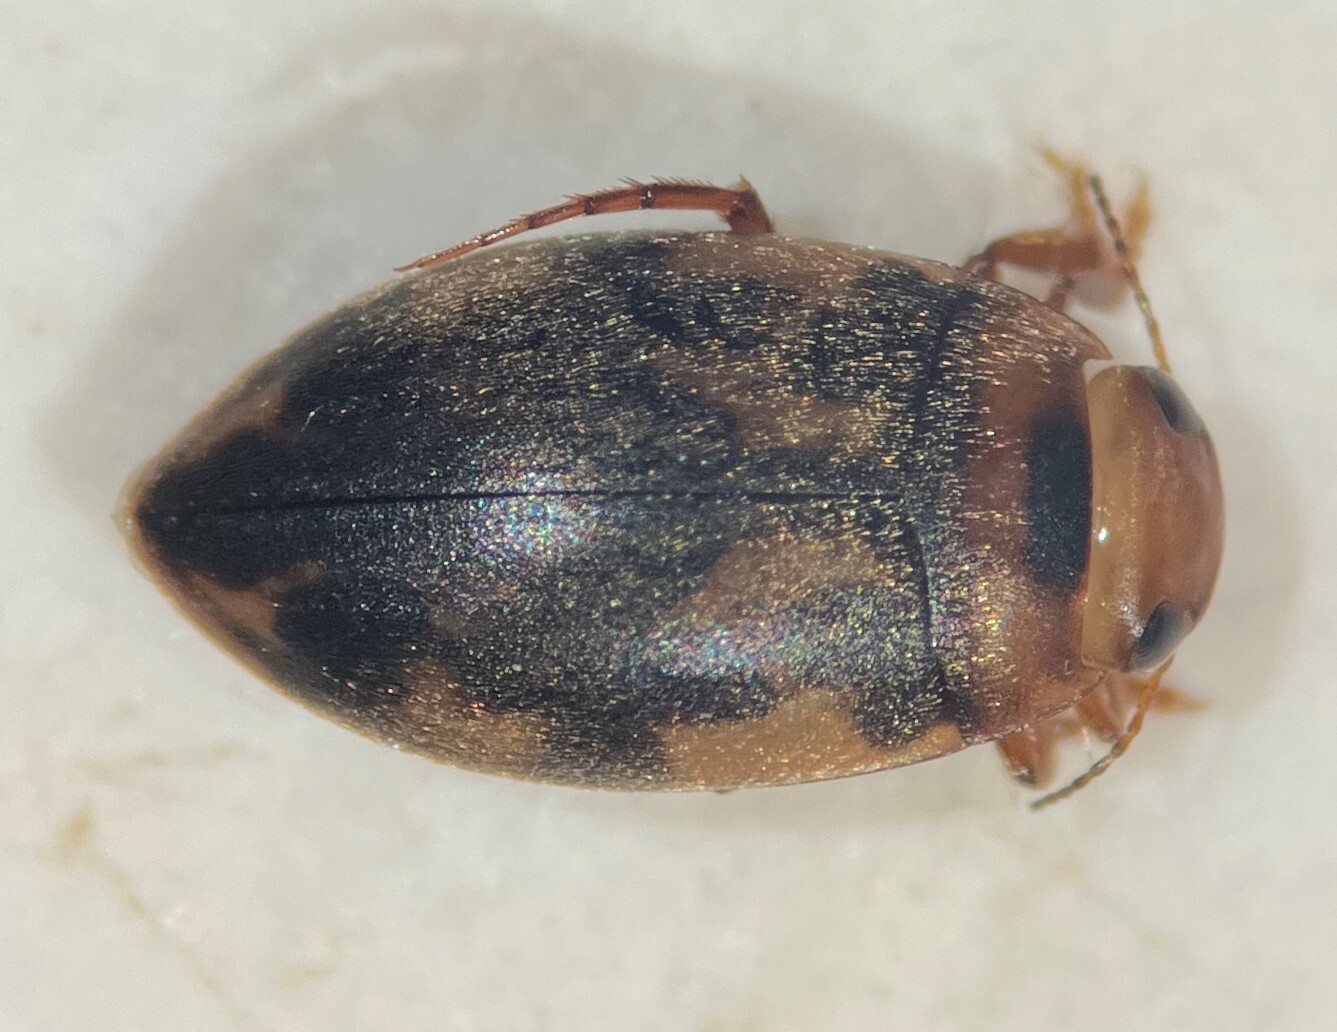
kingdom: Animalia
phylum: Arthropoda
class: Insecta
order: Coleoptera
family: Dytiscidae
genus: Neoporus
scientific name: Neoporus undulatus
